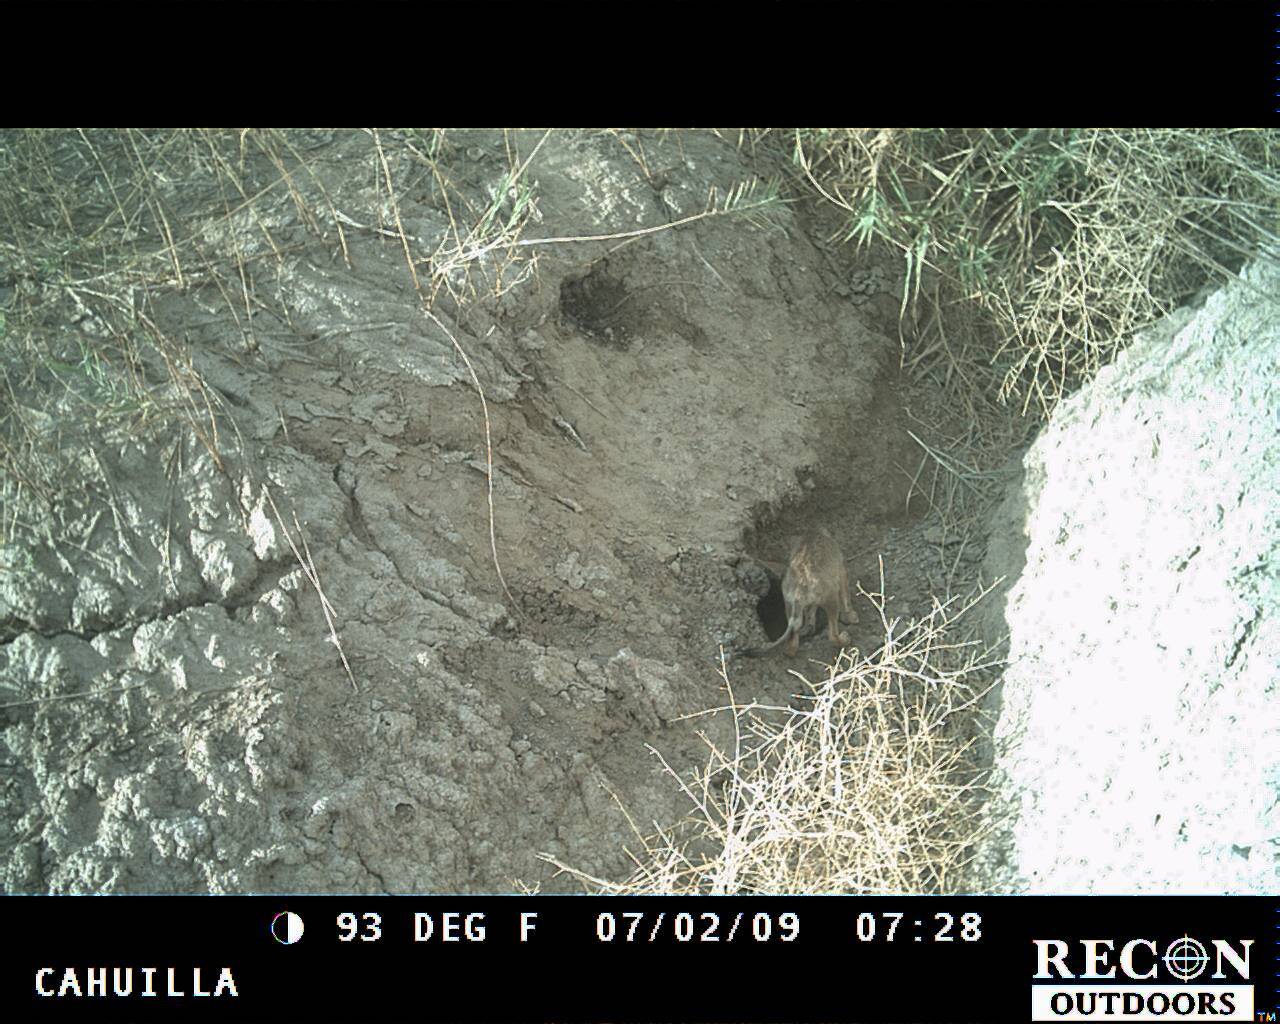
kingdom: Animalia
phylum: Chordata
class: Mammalia
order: Carnivora
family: Canidae
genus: Canis
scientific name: Canis latrans
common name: Coyote
